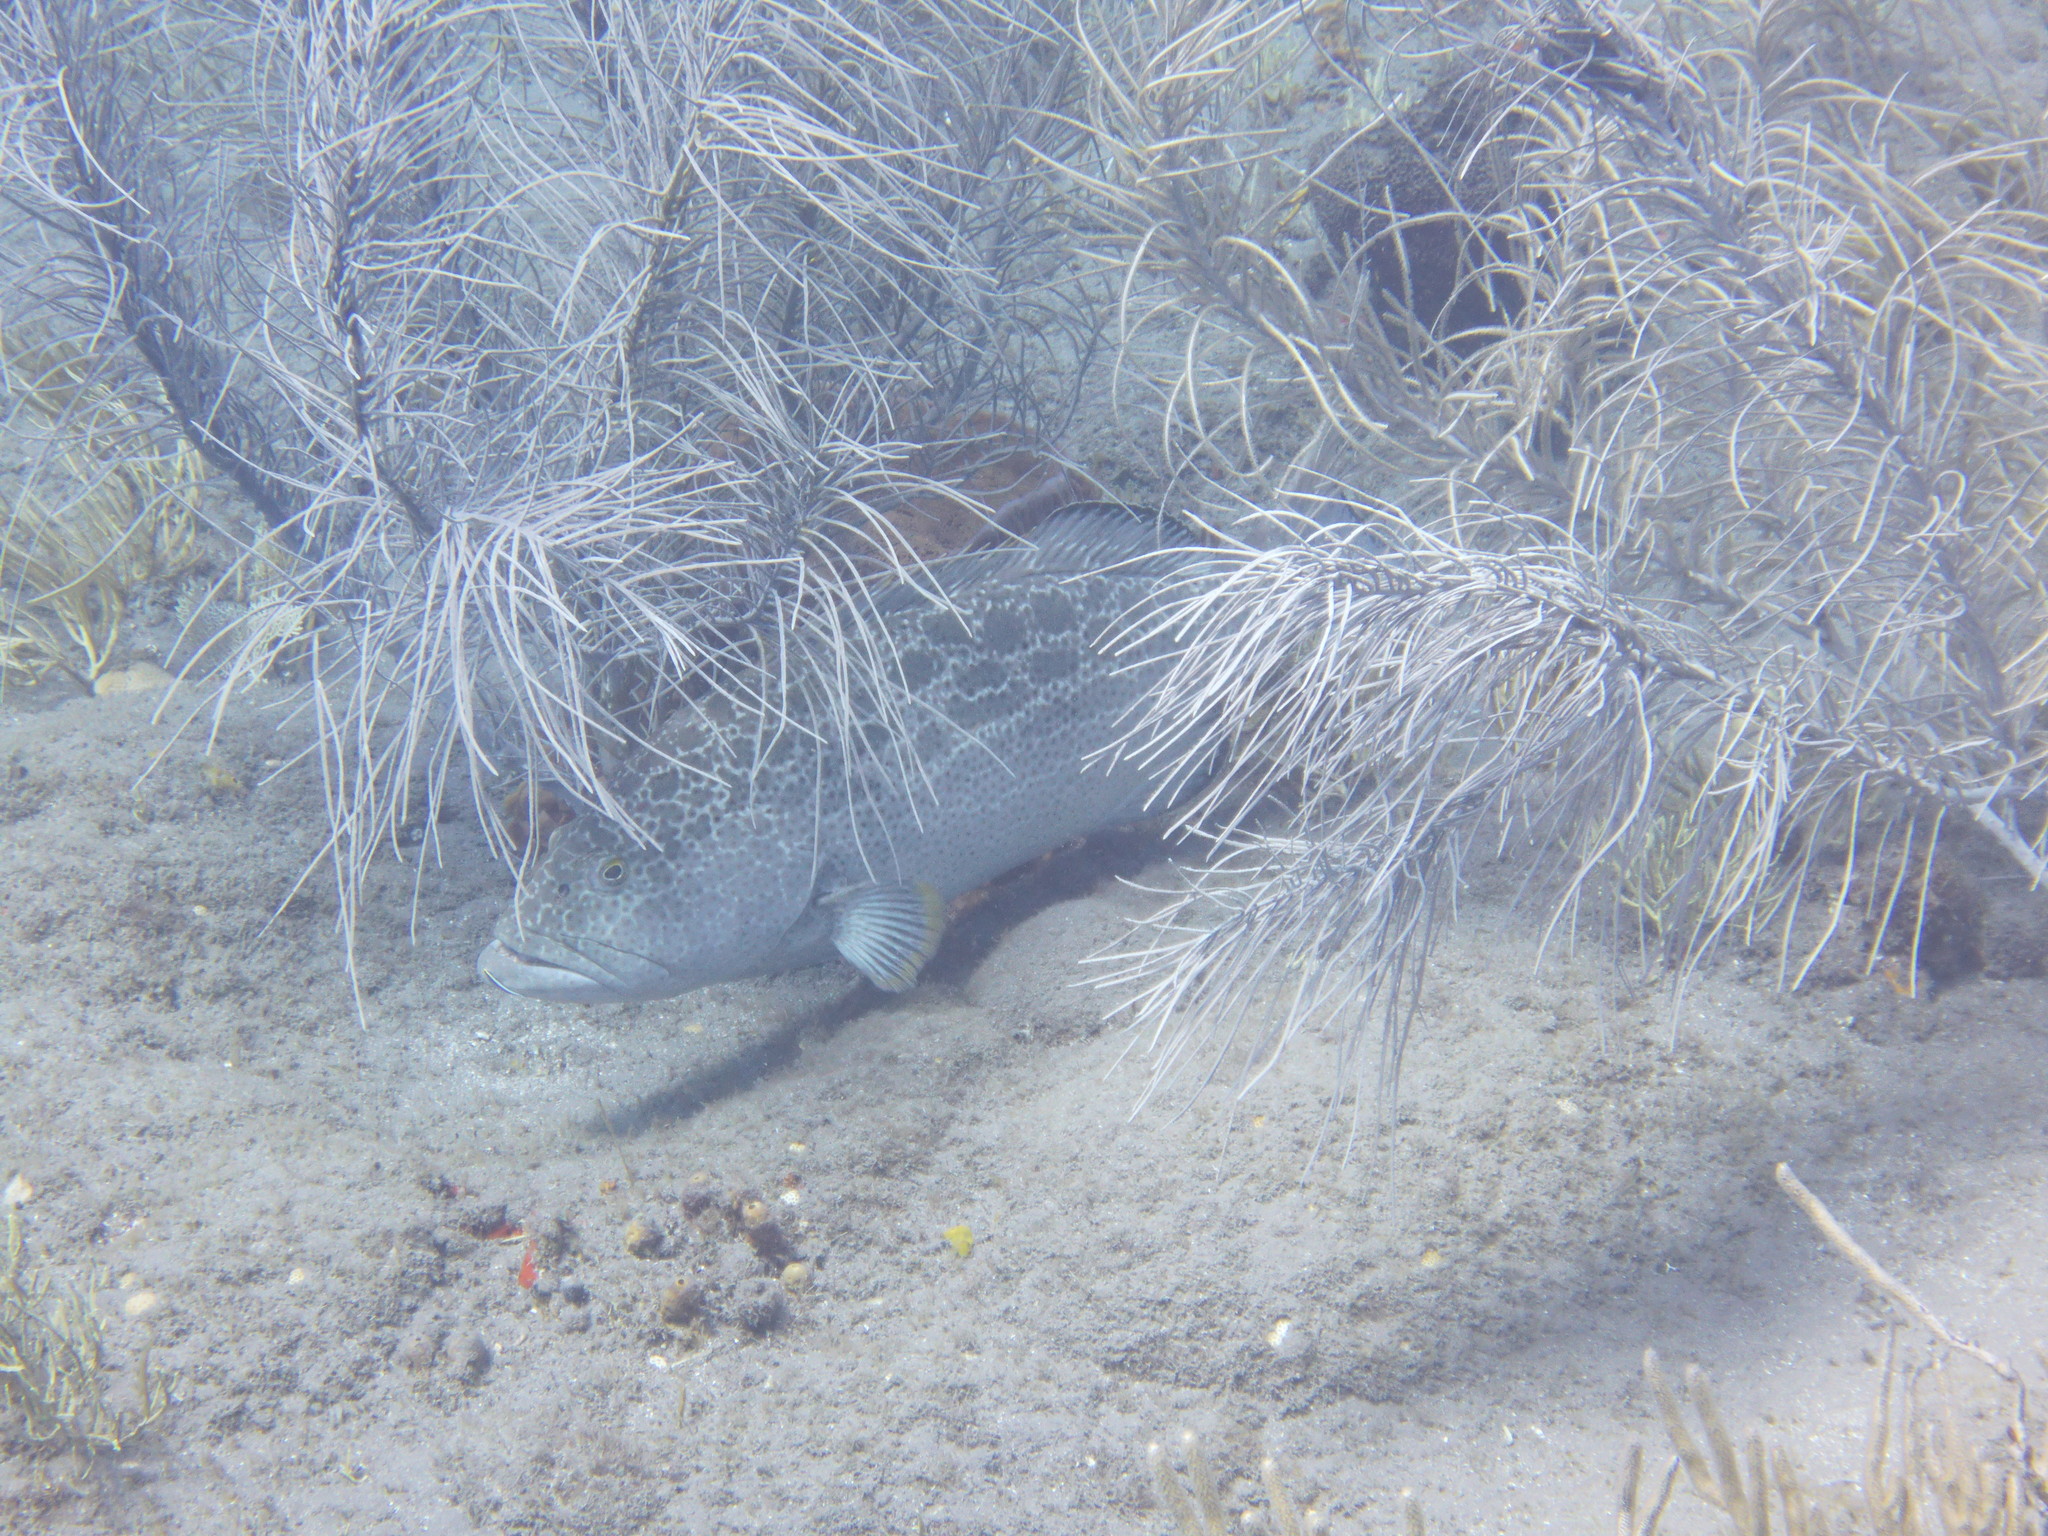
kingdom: Animalia
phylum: Chordata
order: Perciformes
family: Serranidae
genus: Mycteroperca
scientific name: Mycteroperca venenosa
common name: Yellowfin grouper
